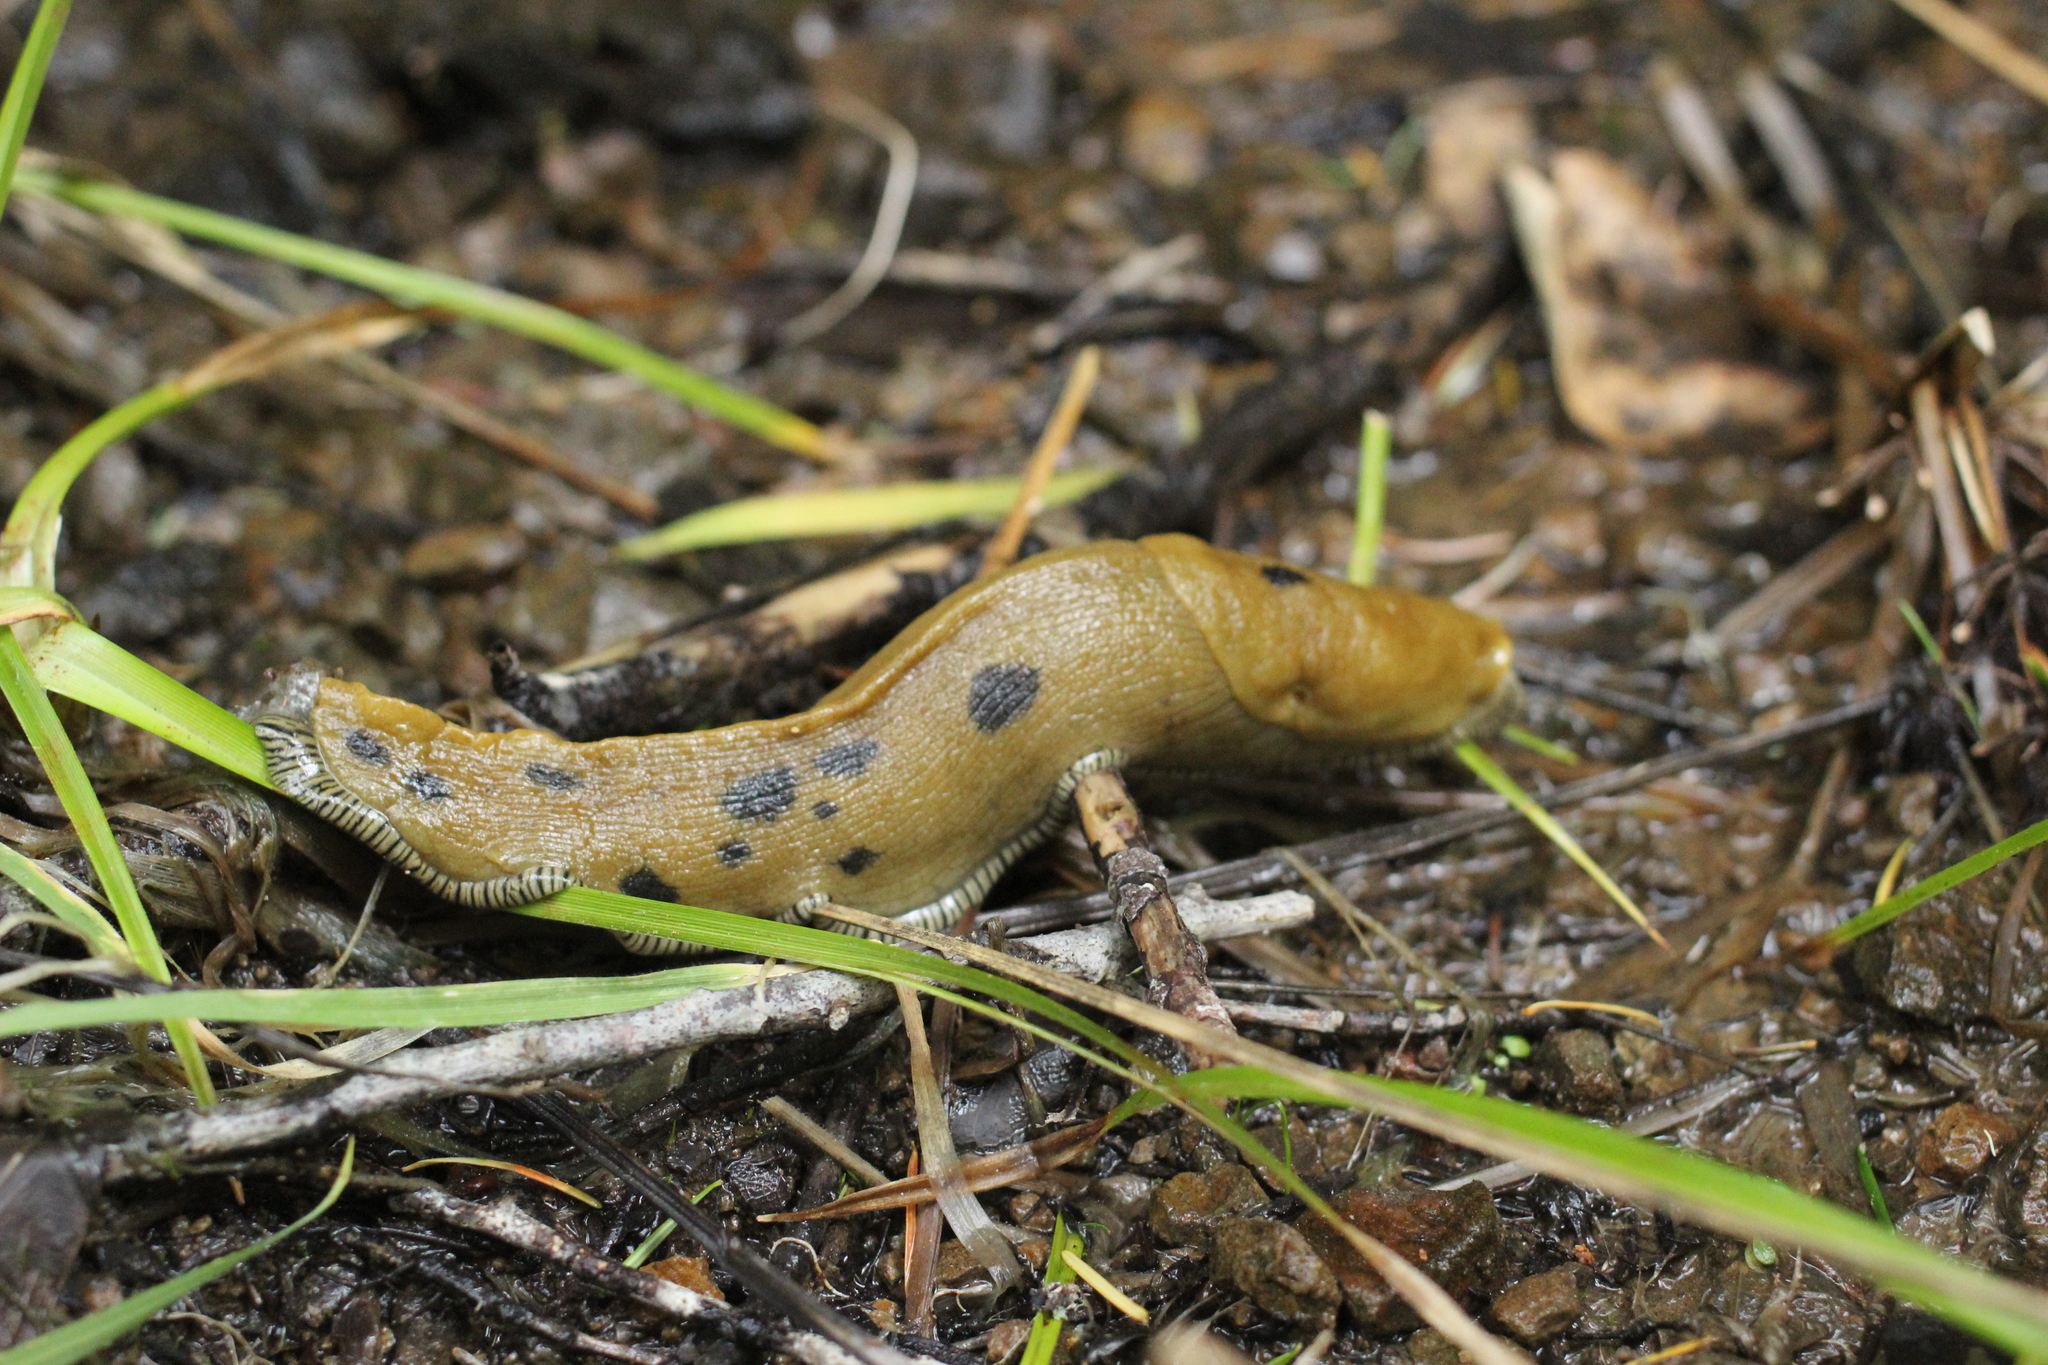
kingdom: Animalia
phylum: Mollusca
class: Gastropoda
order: Stylommatophora
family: Ariolimacidae
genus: Ariolimax
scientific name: Ariolimax buttoni
